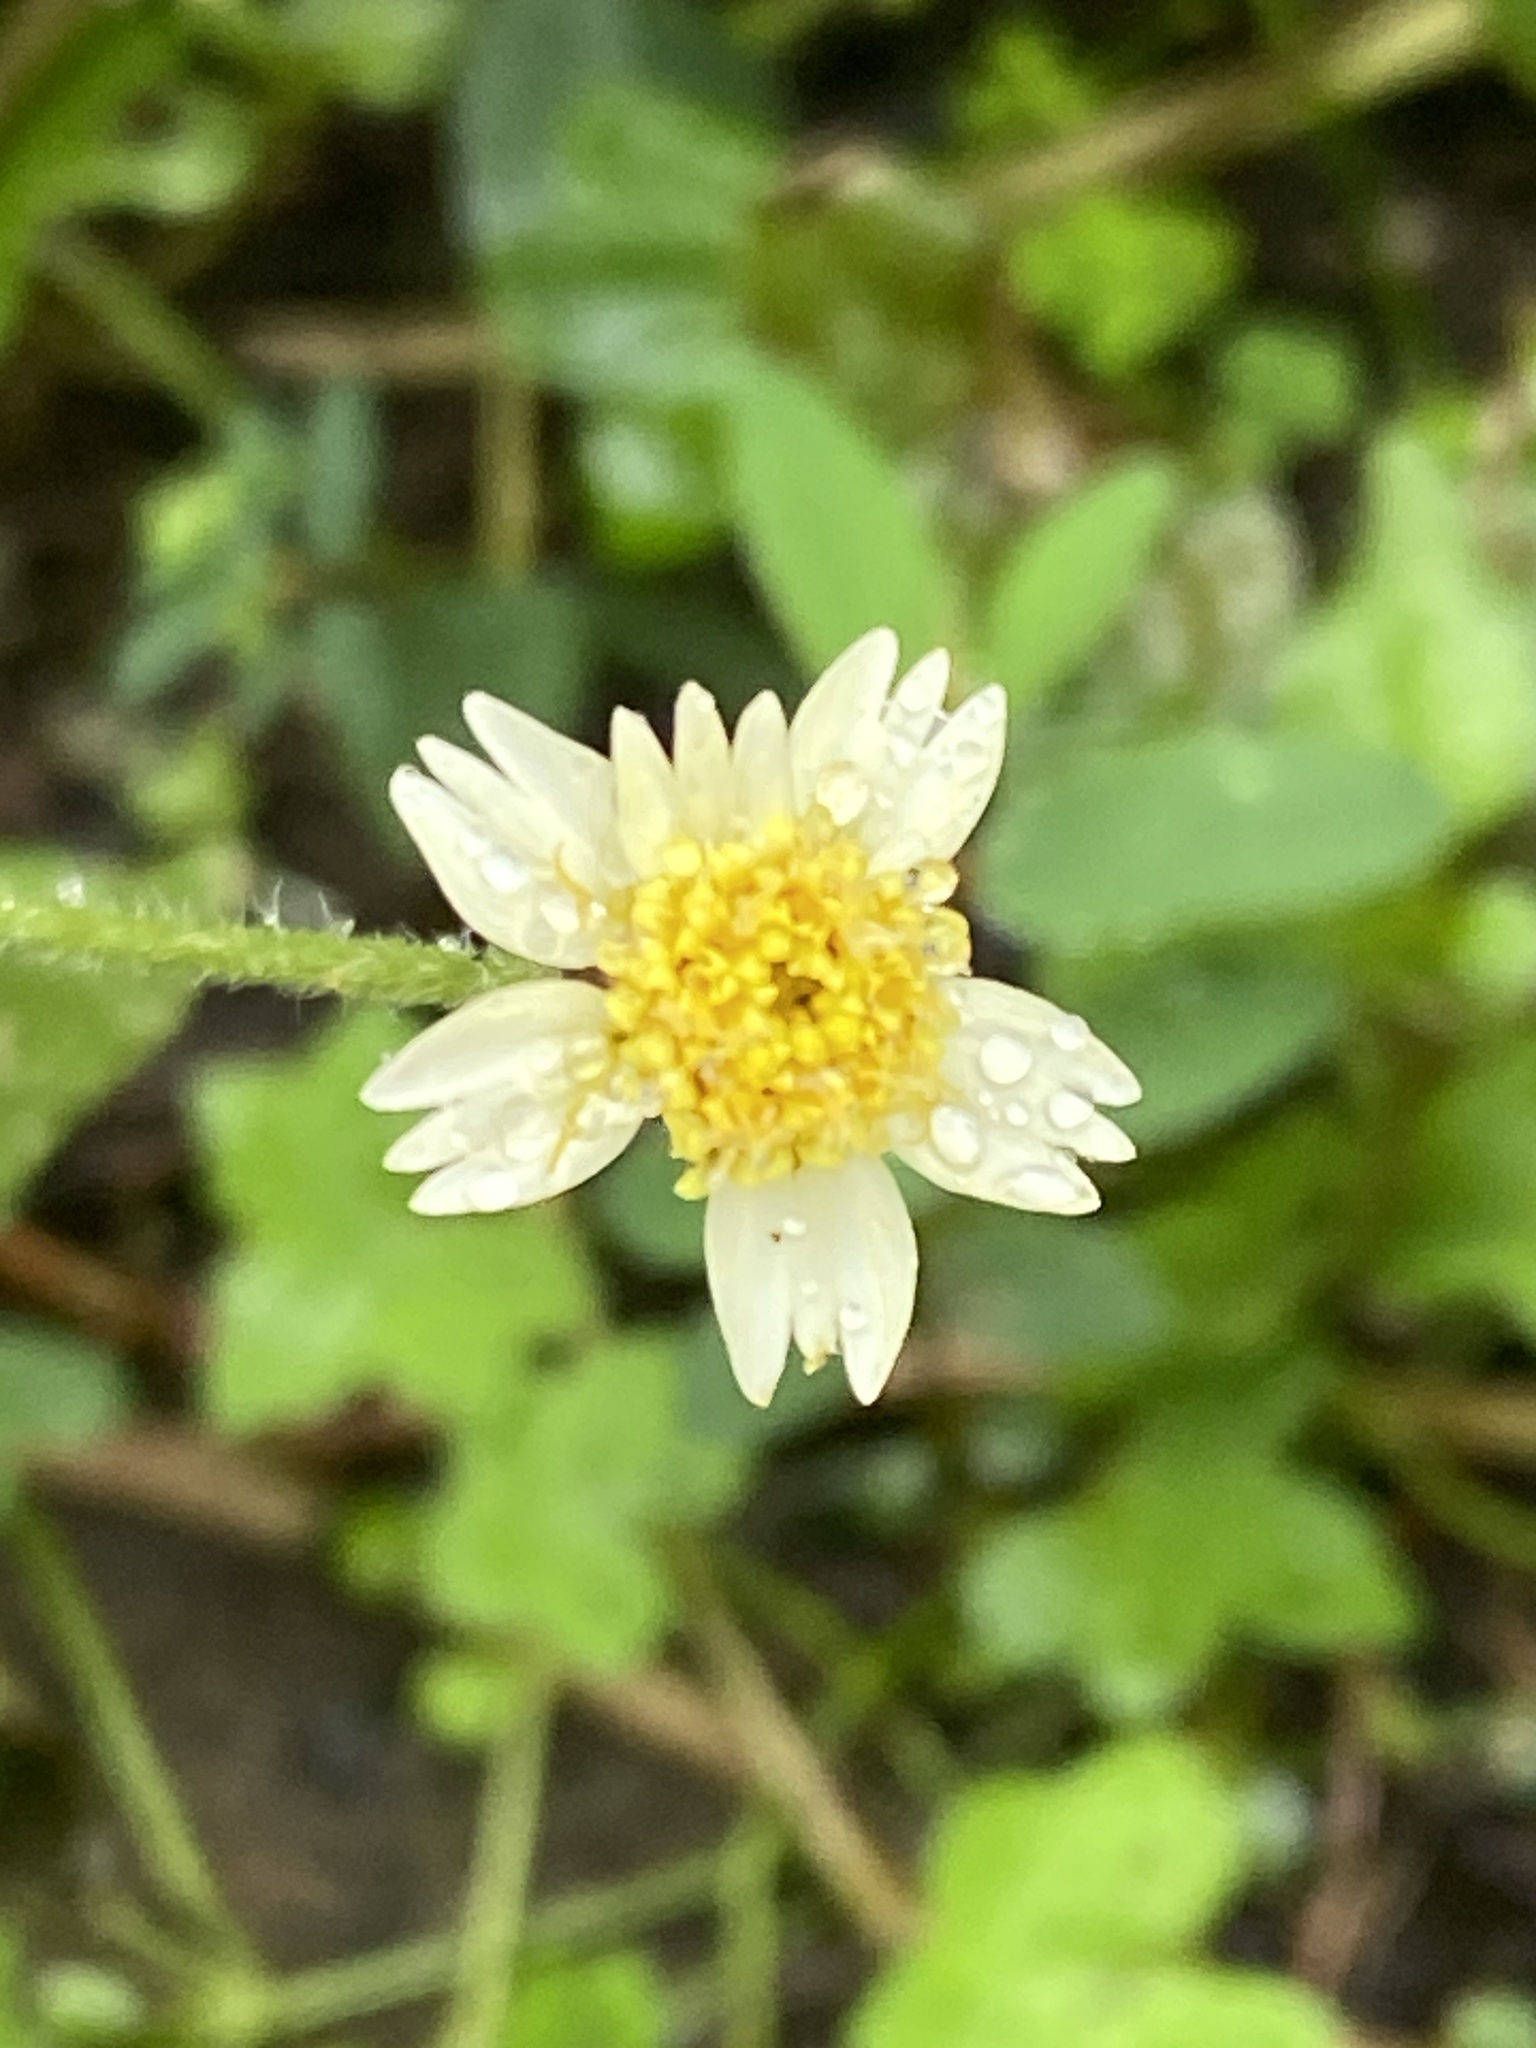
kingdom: Plantae
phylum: Tracheophyta
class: Magnoliopsida
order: Asterales
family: Asteraceae
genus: Tridax
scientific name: Tridax procumbens
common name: Coatbuttons
